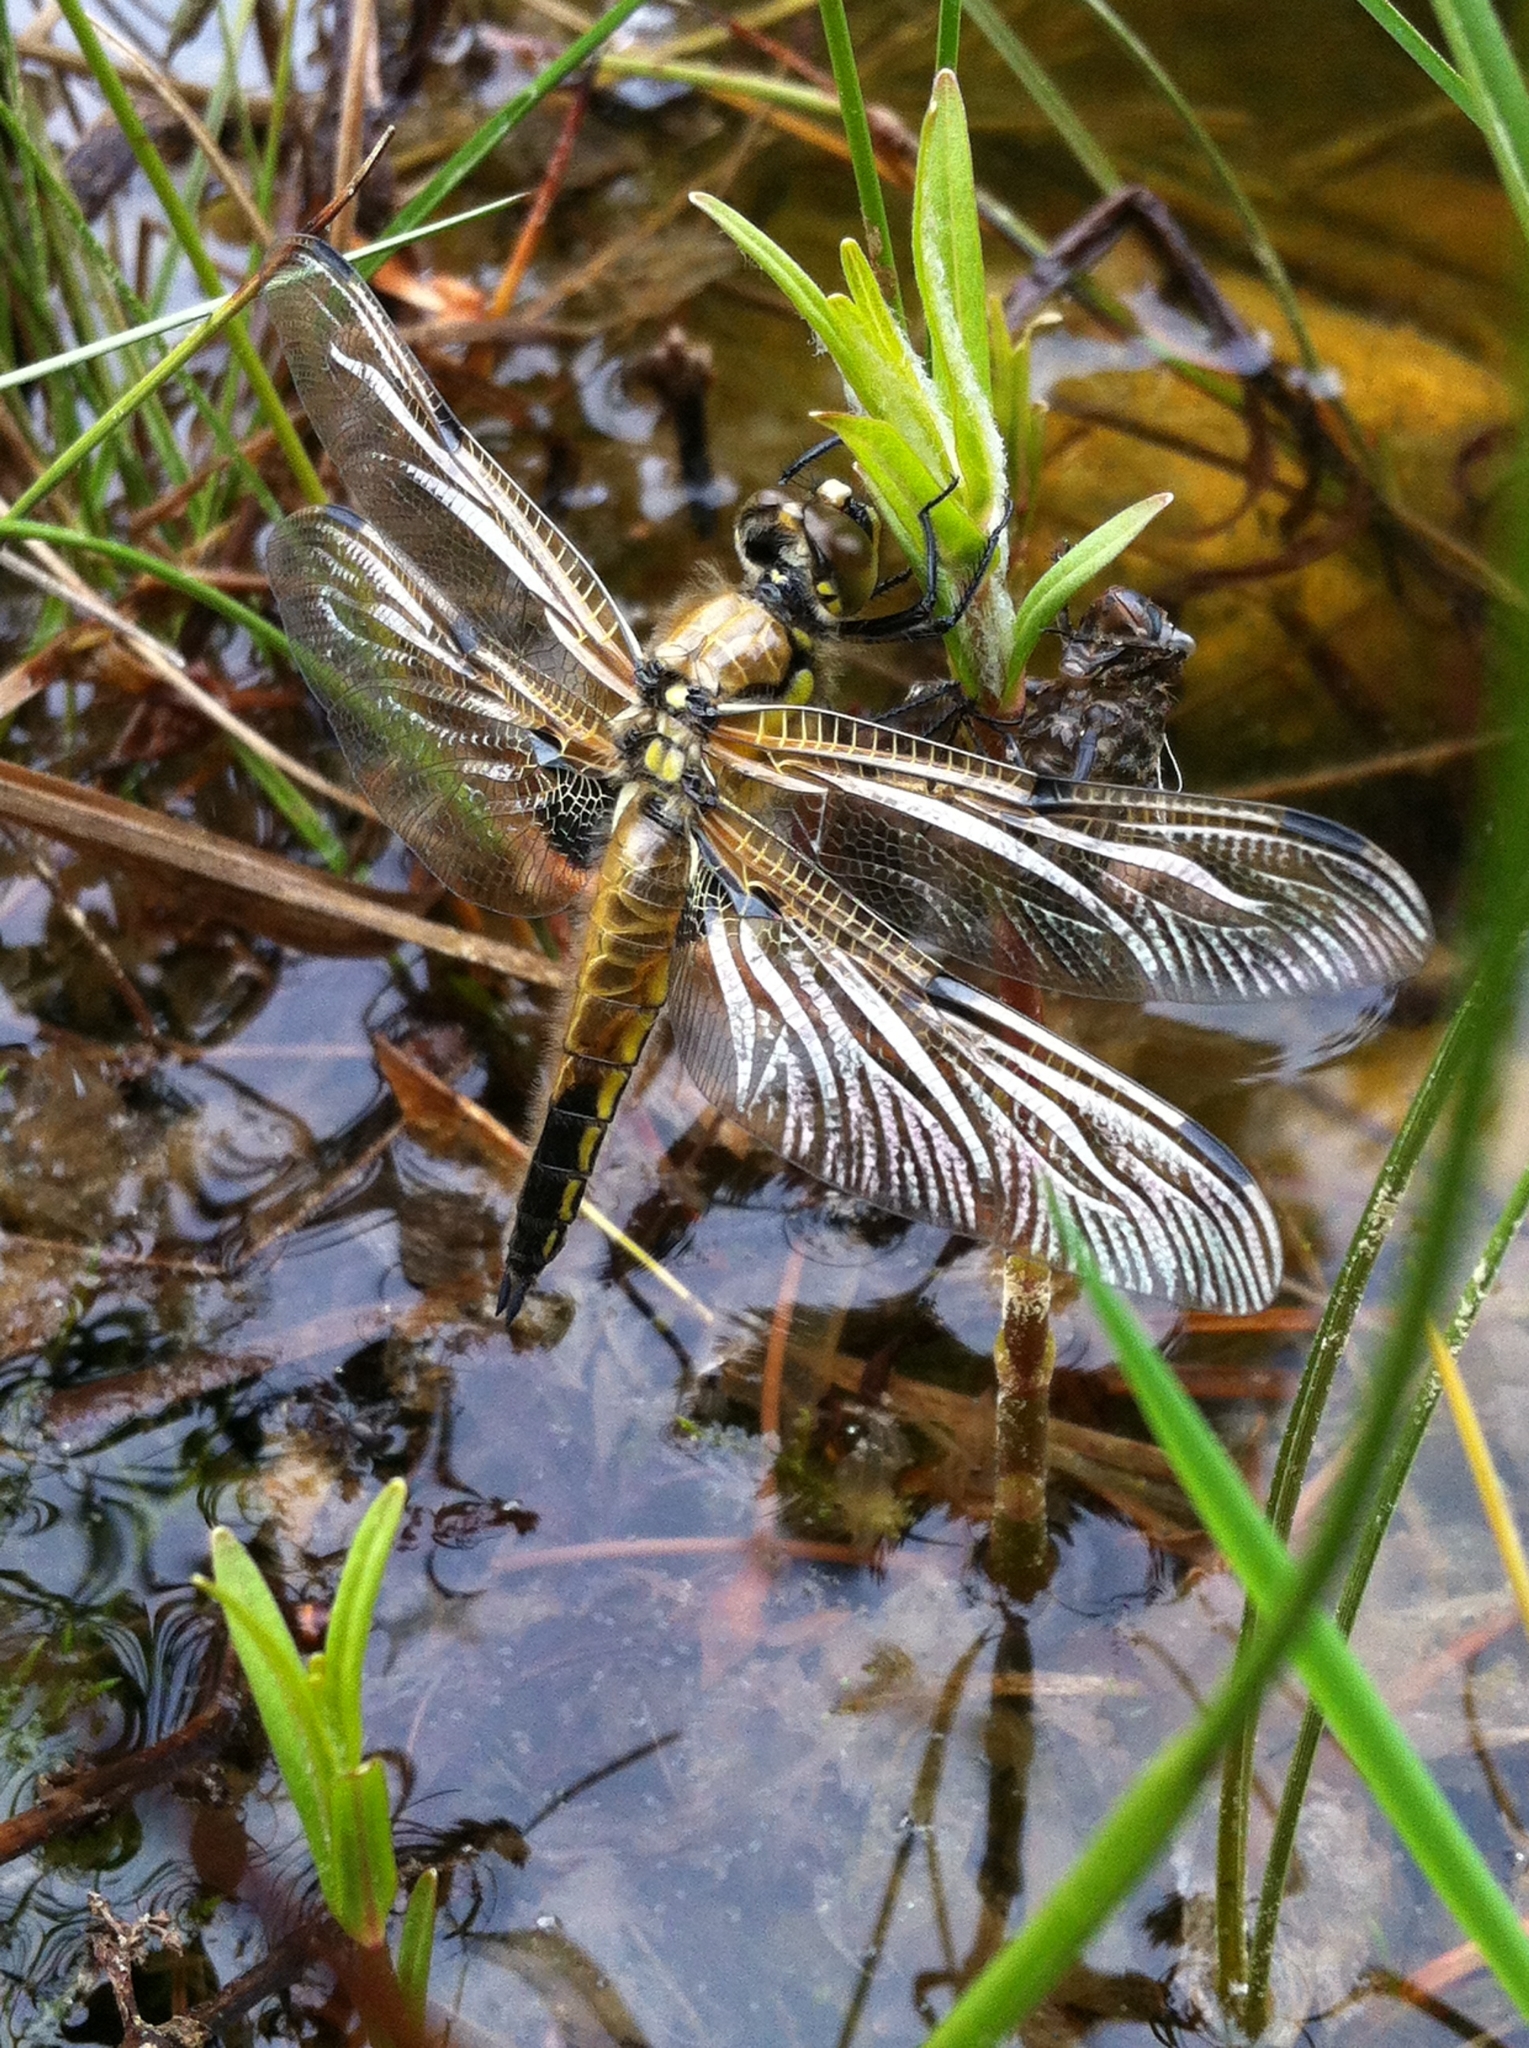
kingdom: Animalia
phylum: Arthropoda
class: Insecta
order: Odonata
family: Libellulidae
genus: Libellula
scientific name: Libellula quadrimaculata
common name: Four-spotted chaser
